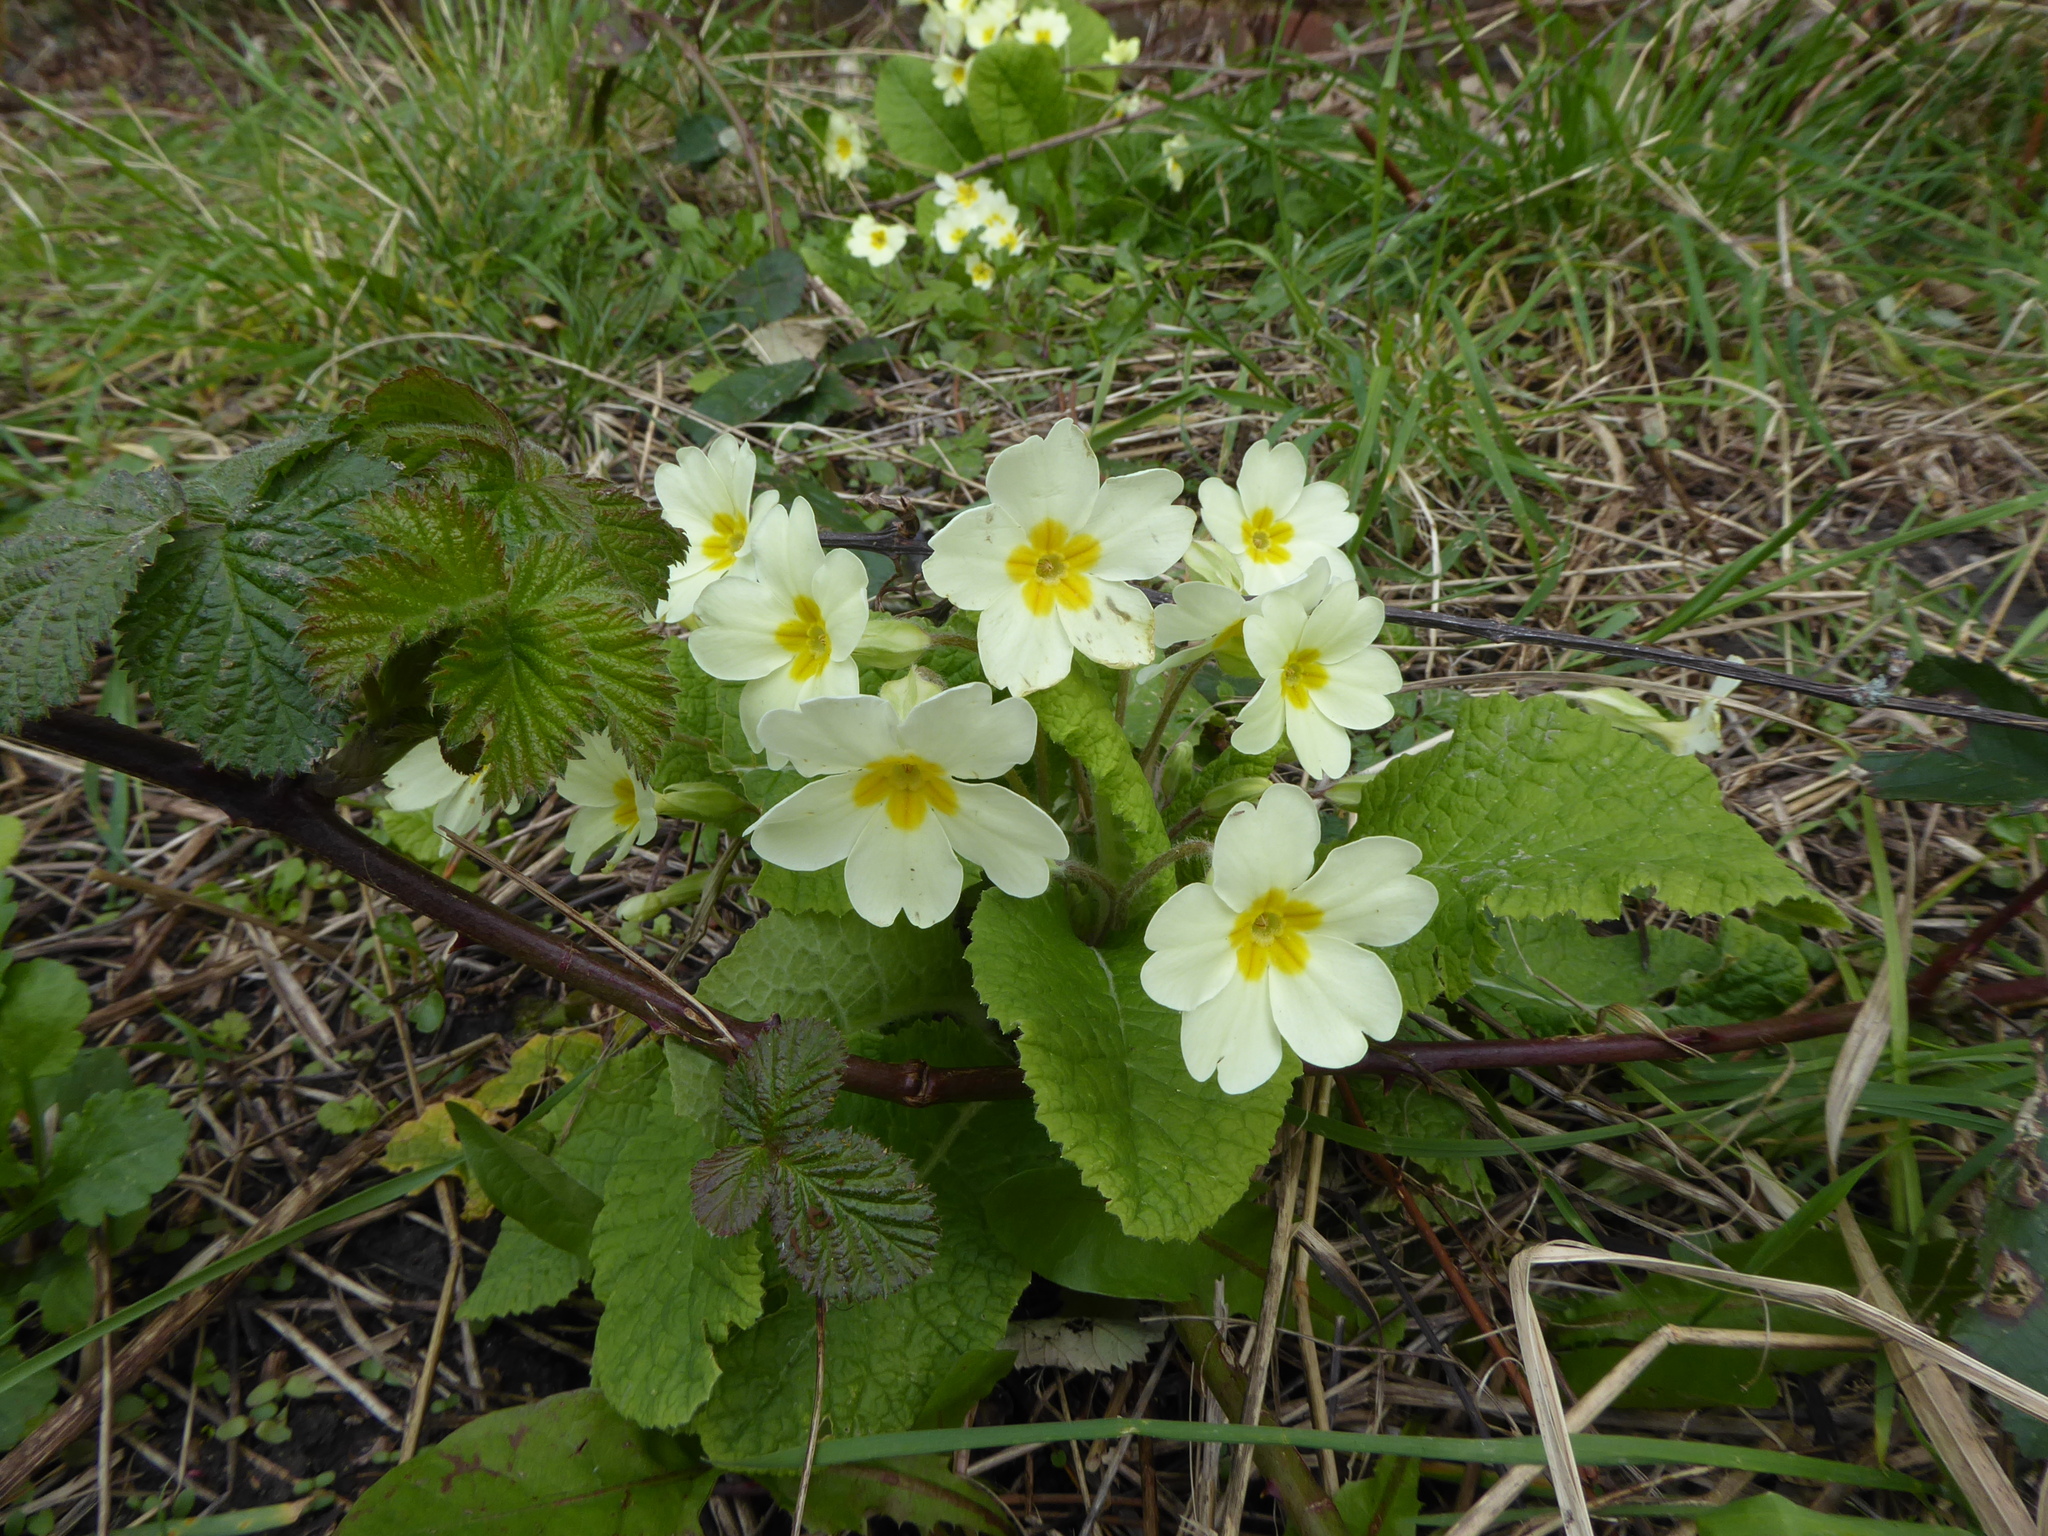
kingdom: Plantae
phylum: Tracheophyta
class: Magnoliopsida
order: Ericales
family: Primulaceae
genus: Primula
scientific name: Primula vulgaris
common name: Primrose
